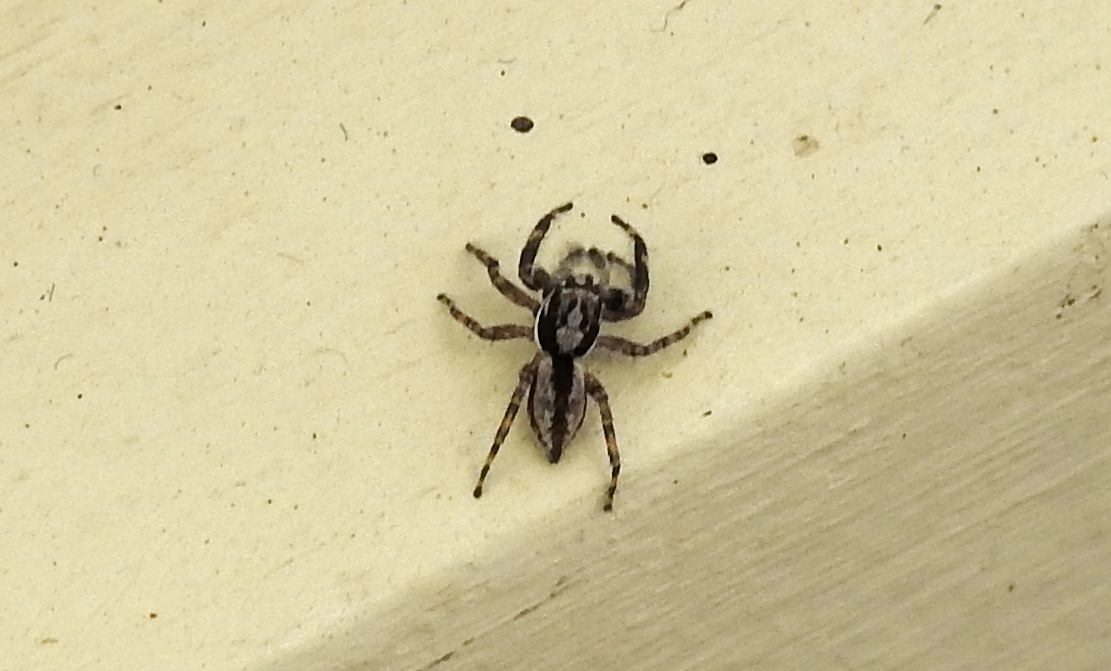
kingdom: Animalia
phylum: Arthropoda
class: Arachnida
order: Araneae
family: Salticidae
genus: Menemerus
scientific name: Menemerus bivittatus
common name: Gray wall jumper
